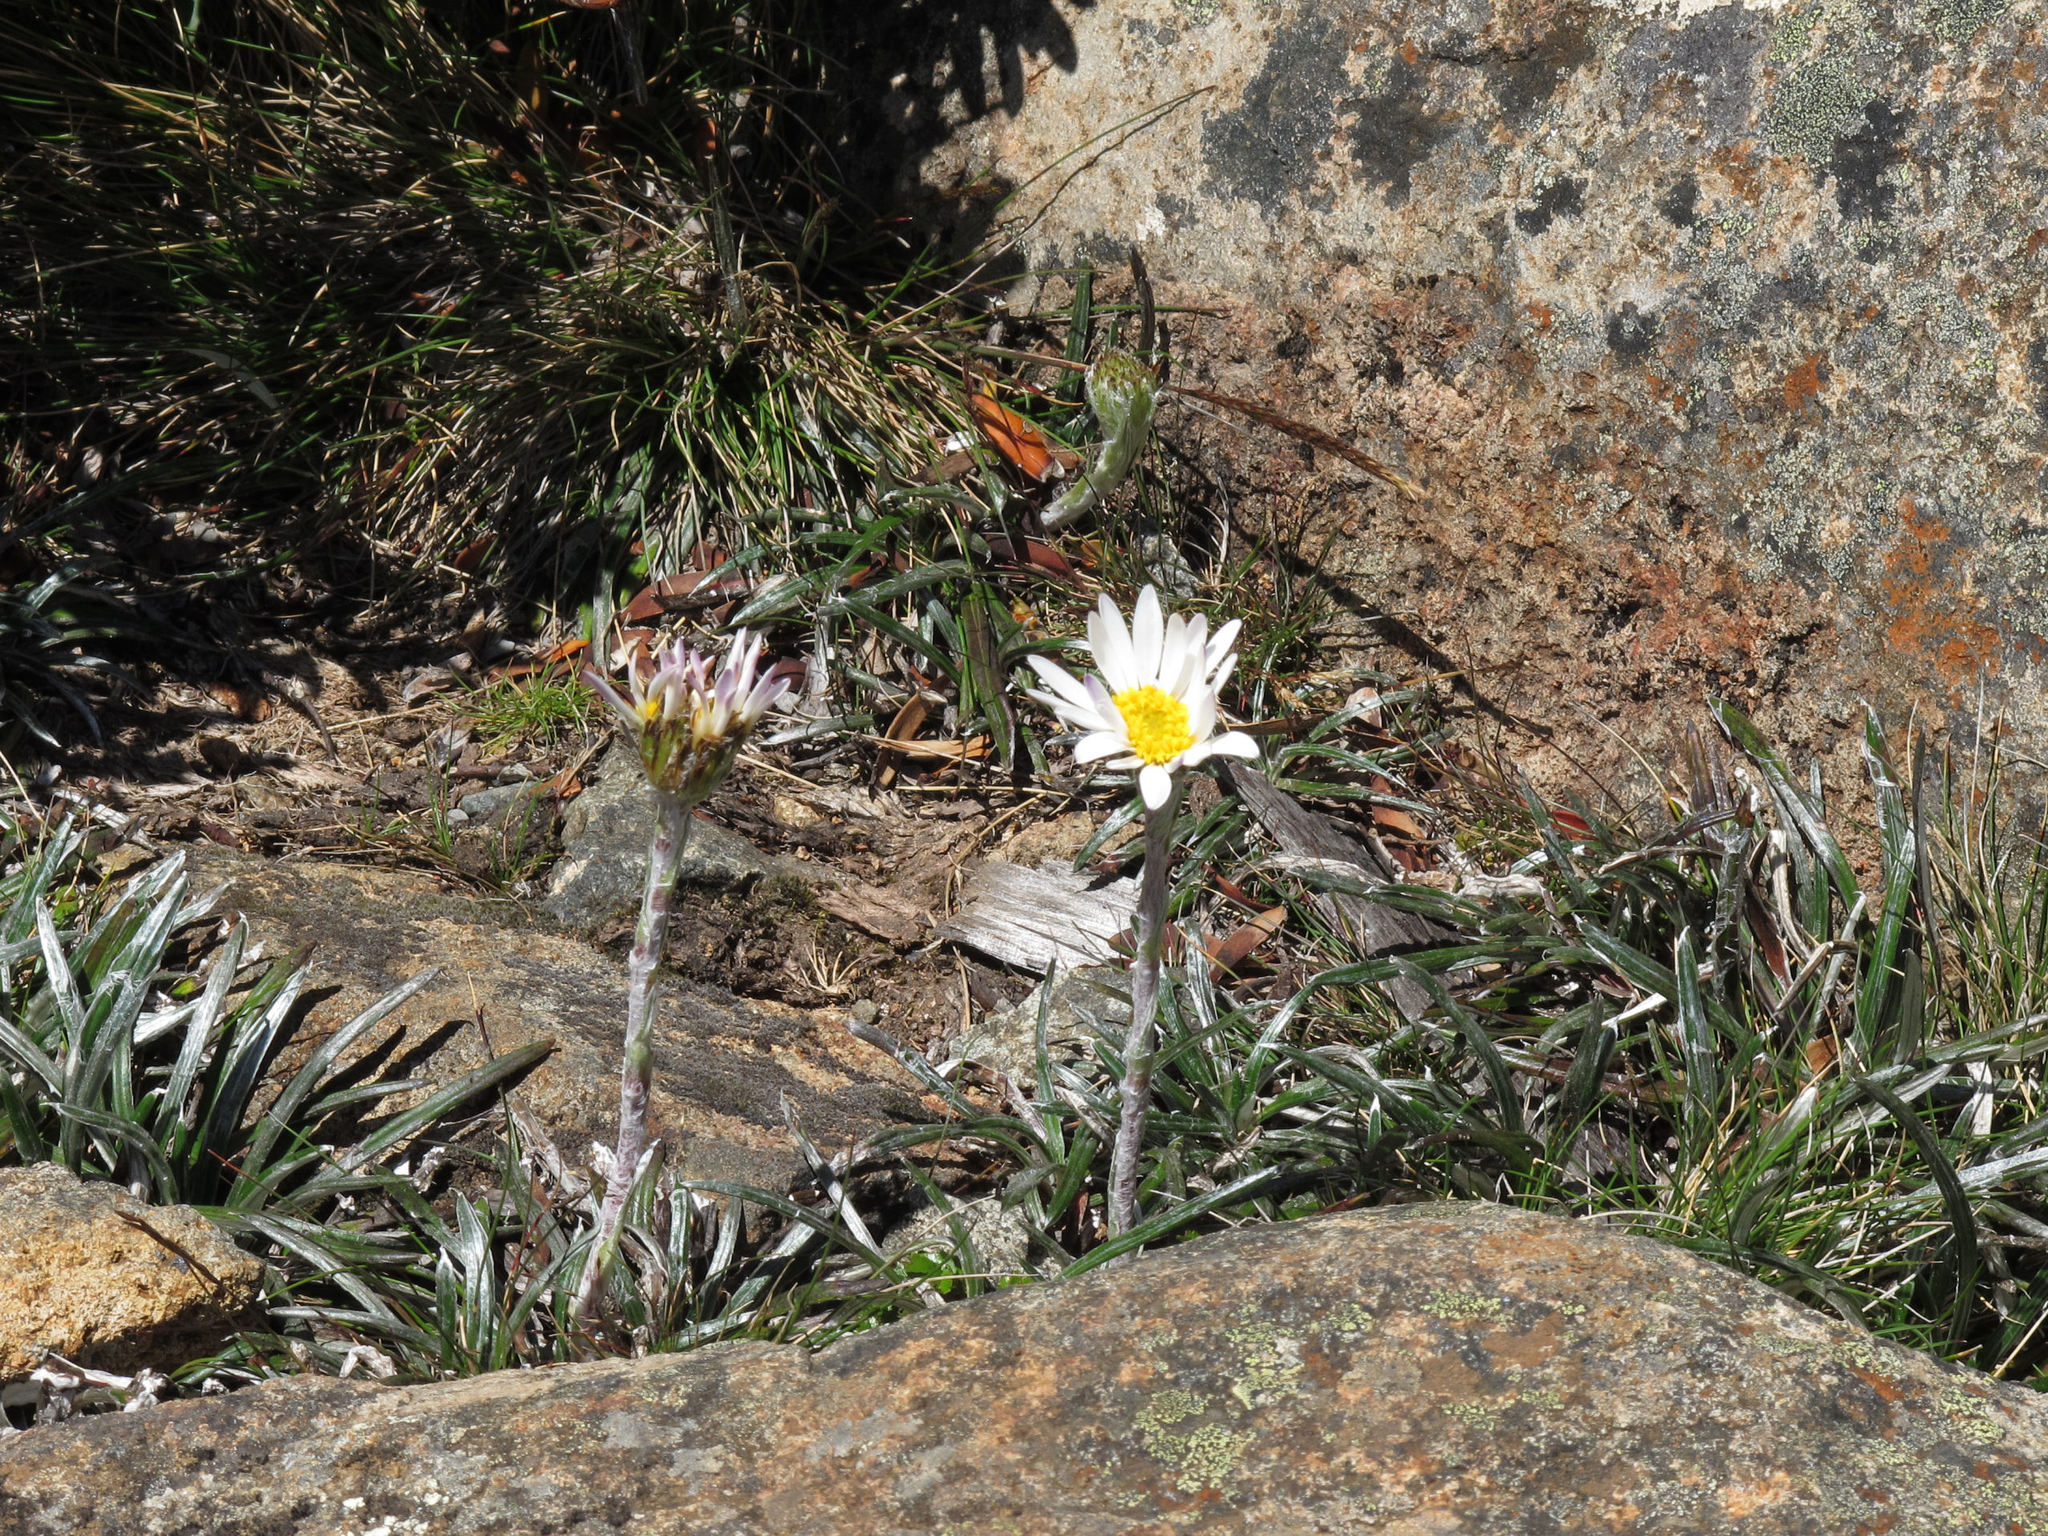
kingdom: Plantae
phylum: Tracheophyta
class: Magnoliopsida
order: Asterales
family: Asteraceae
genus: Celmisia
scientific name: Celmisia asteliifolia
